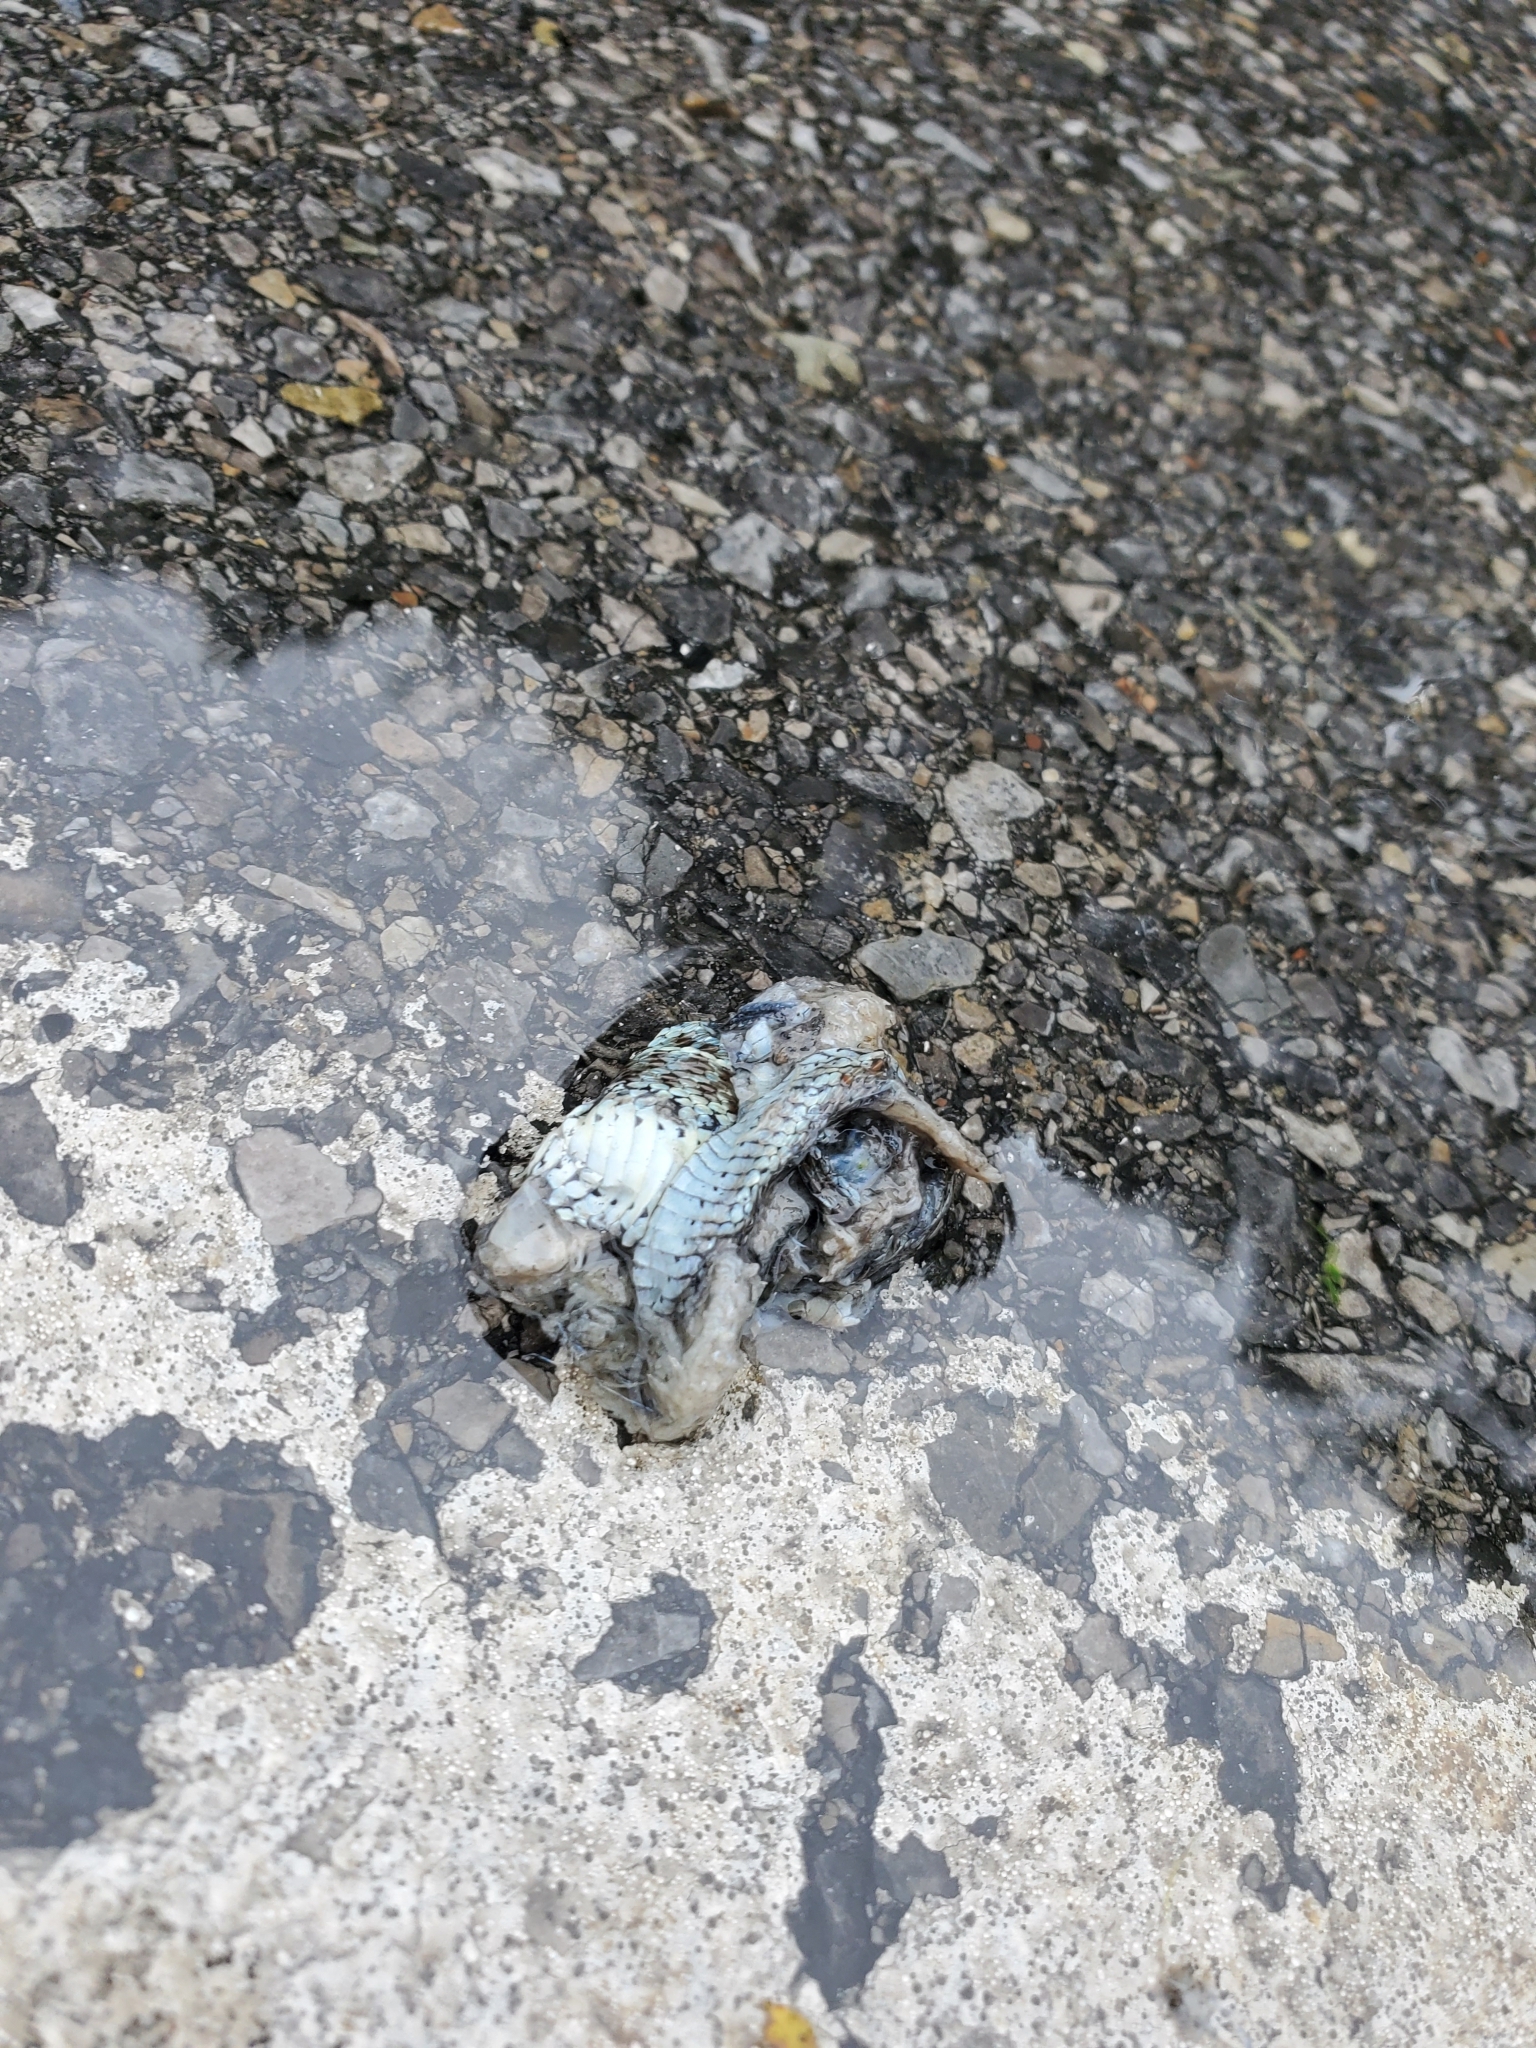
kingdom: Animalia
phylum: Chordata
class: Squamata
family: Colubridae
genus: Thamnophis
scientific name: Thamnophis sirtalis
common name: Common garter snake
